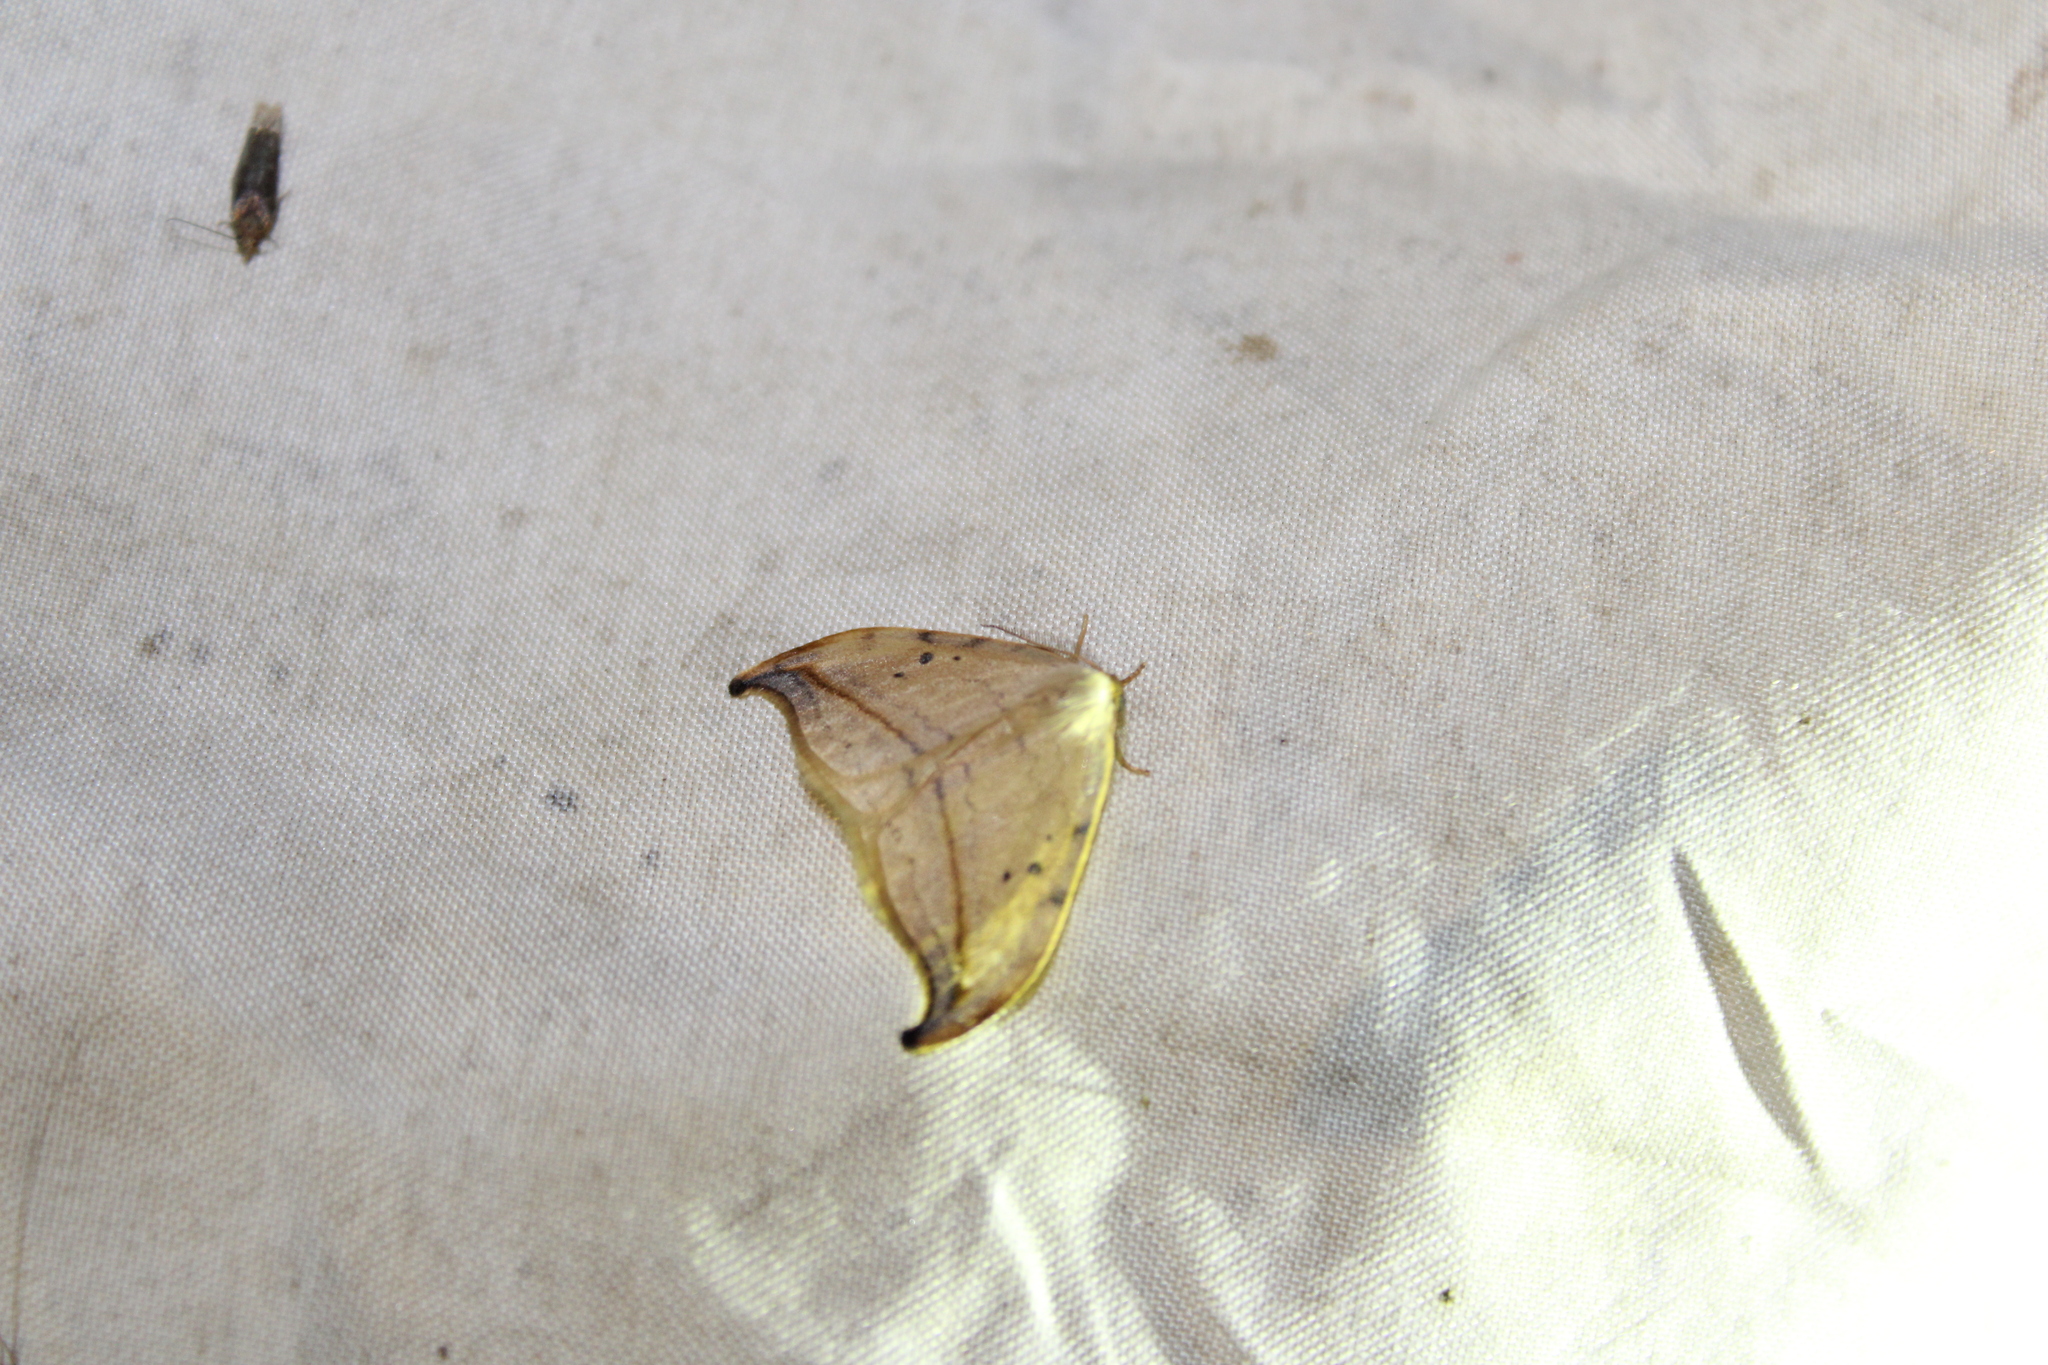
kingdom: Animalia
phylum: Arthropoda
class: Insecta
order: Lepidoptera
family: Drepanidae
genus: Drepana
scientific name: Drepana arcuata
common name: Arched hooktip moth
